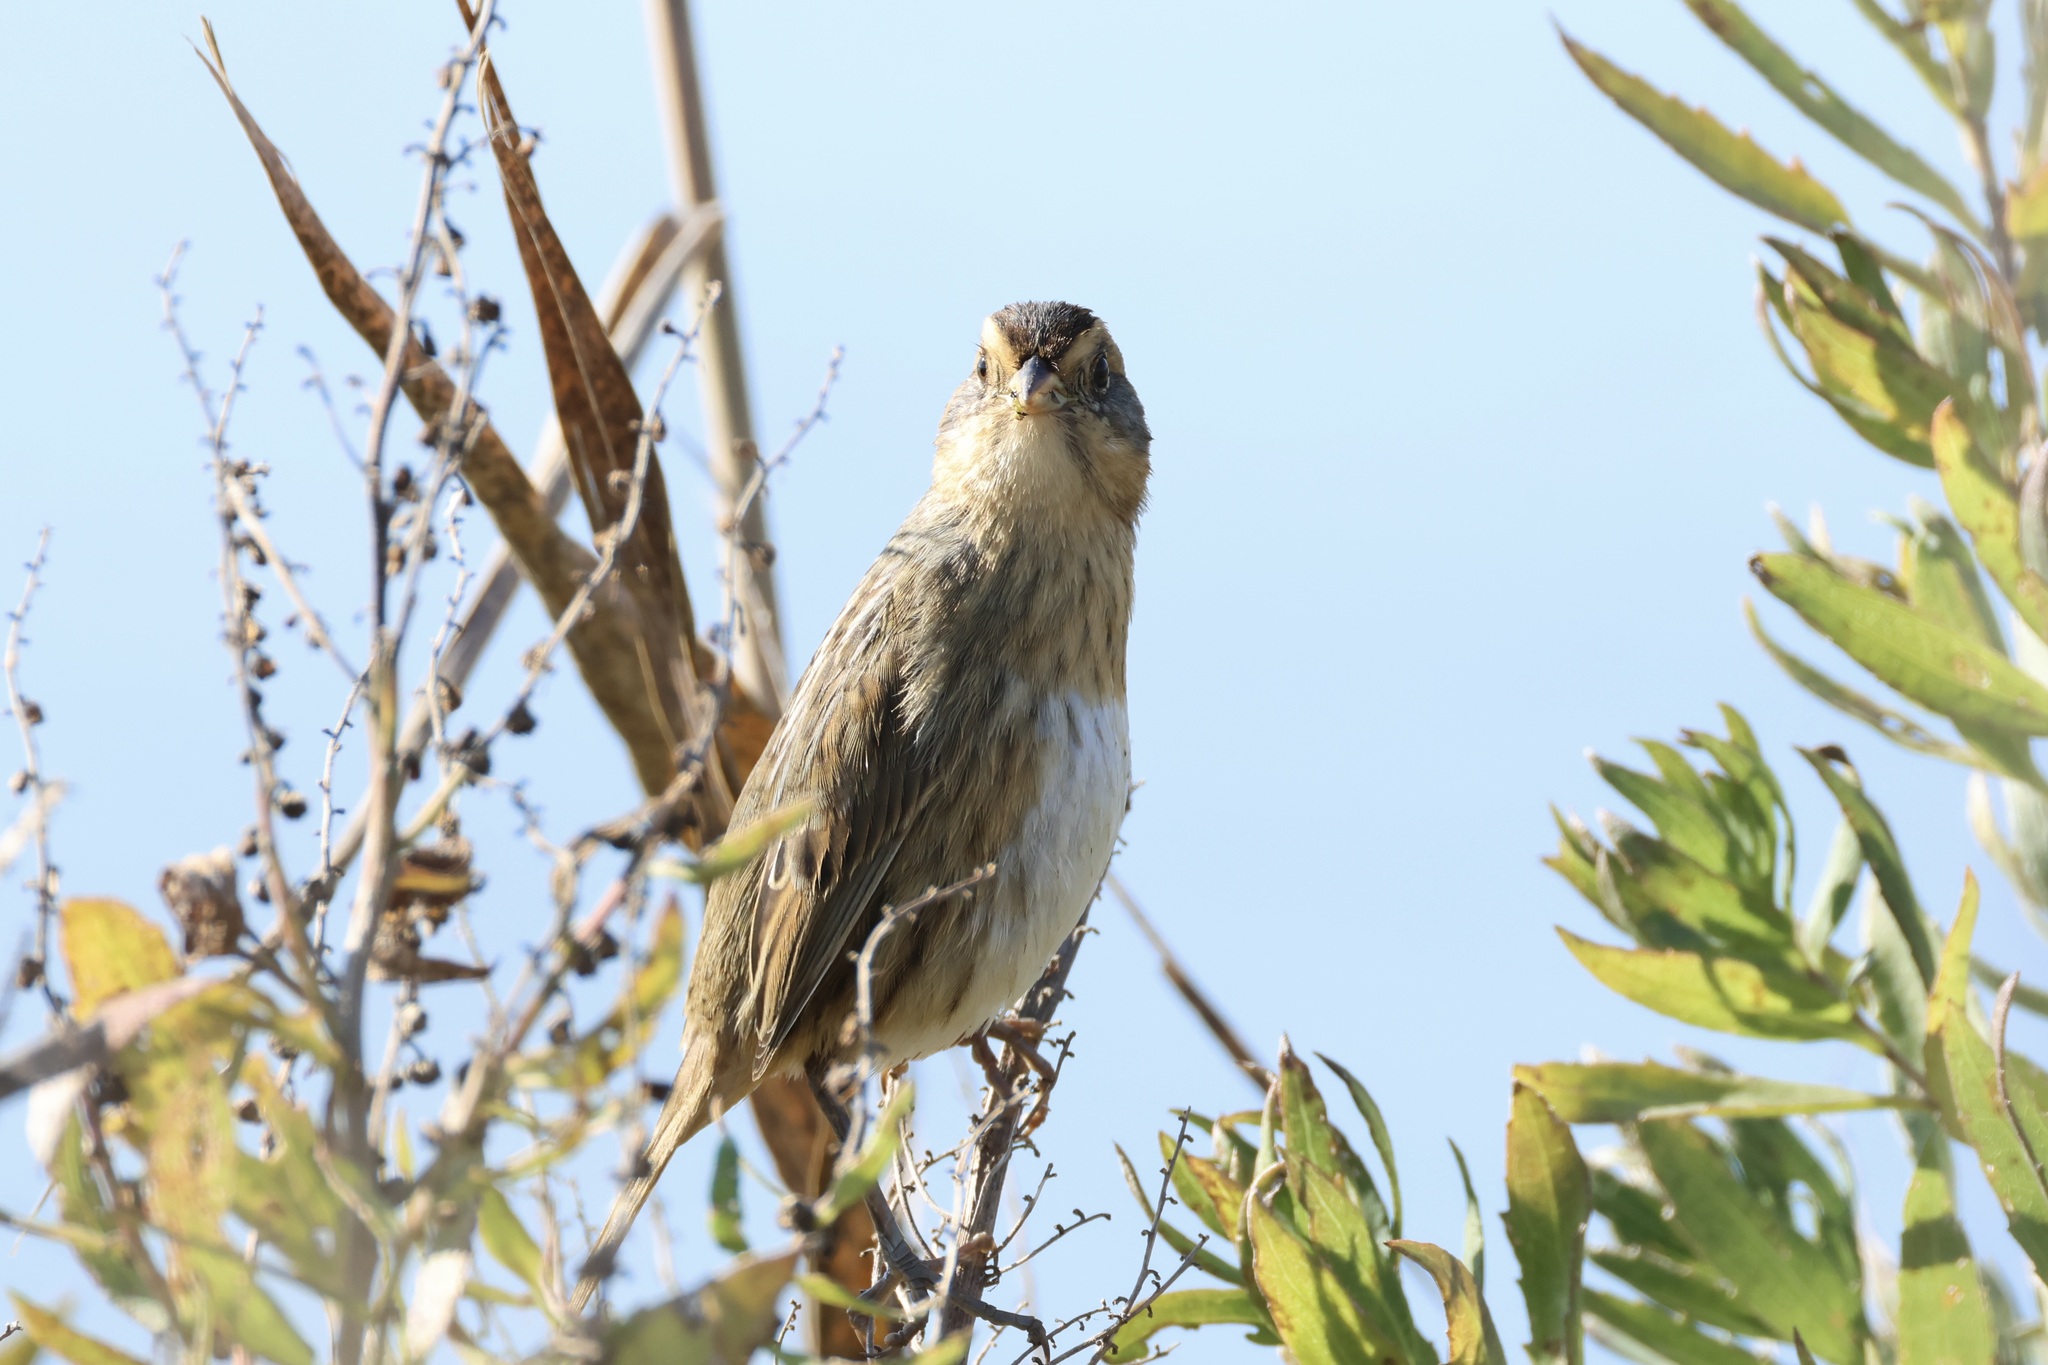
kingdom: Animalia
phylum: Chordata
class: Aves
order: Passeriformes
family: Passerellidae
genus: Ammospiza
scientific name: Ammospiza nelsoni
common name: Nelson's sparrow
